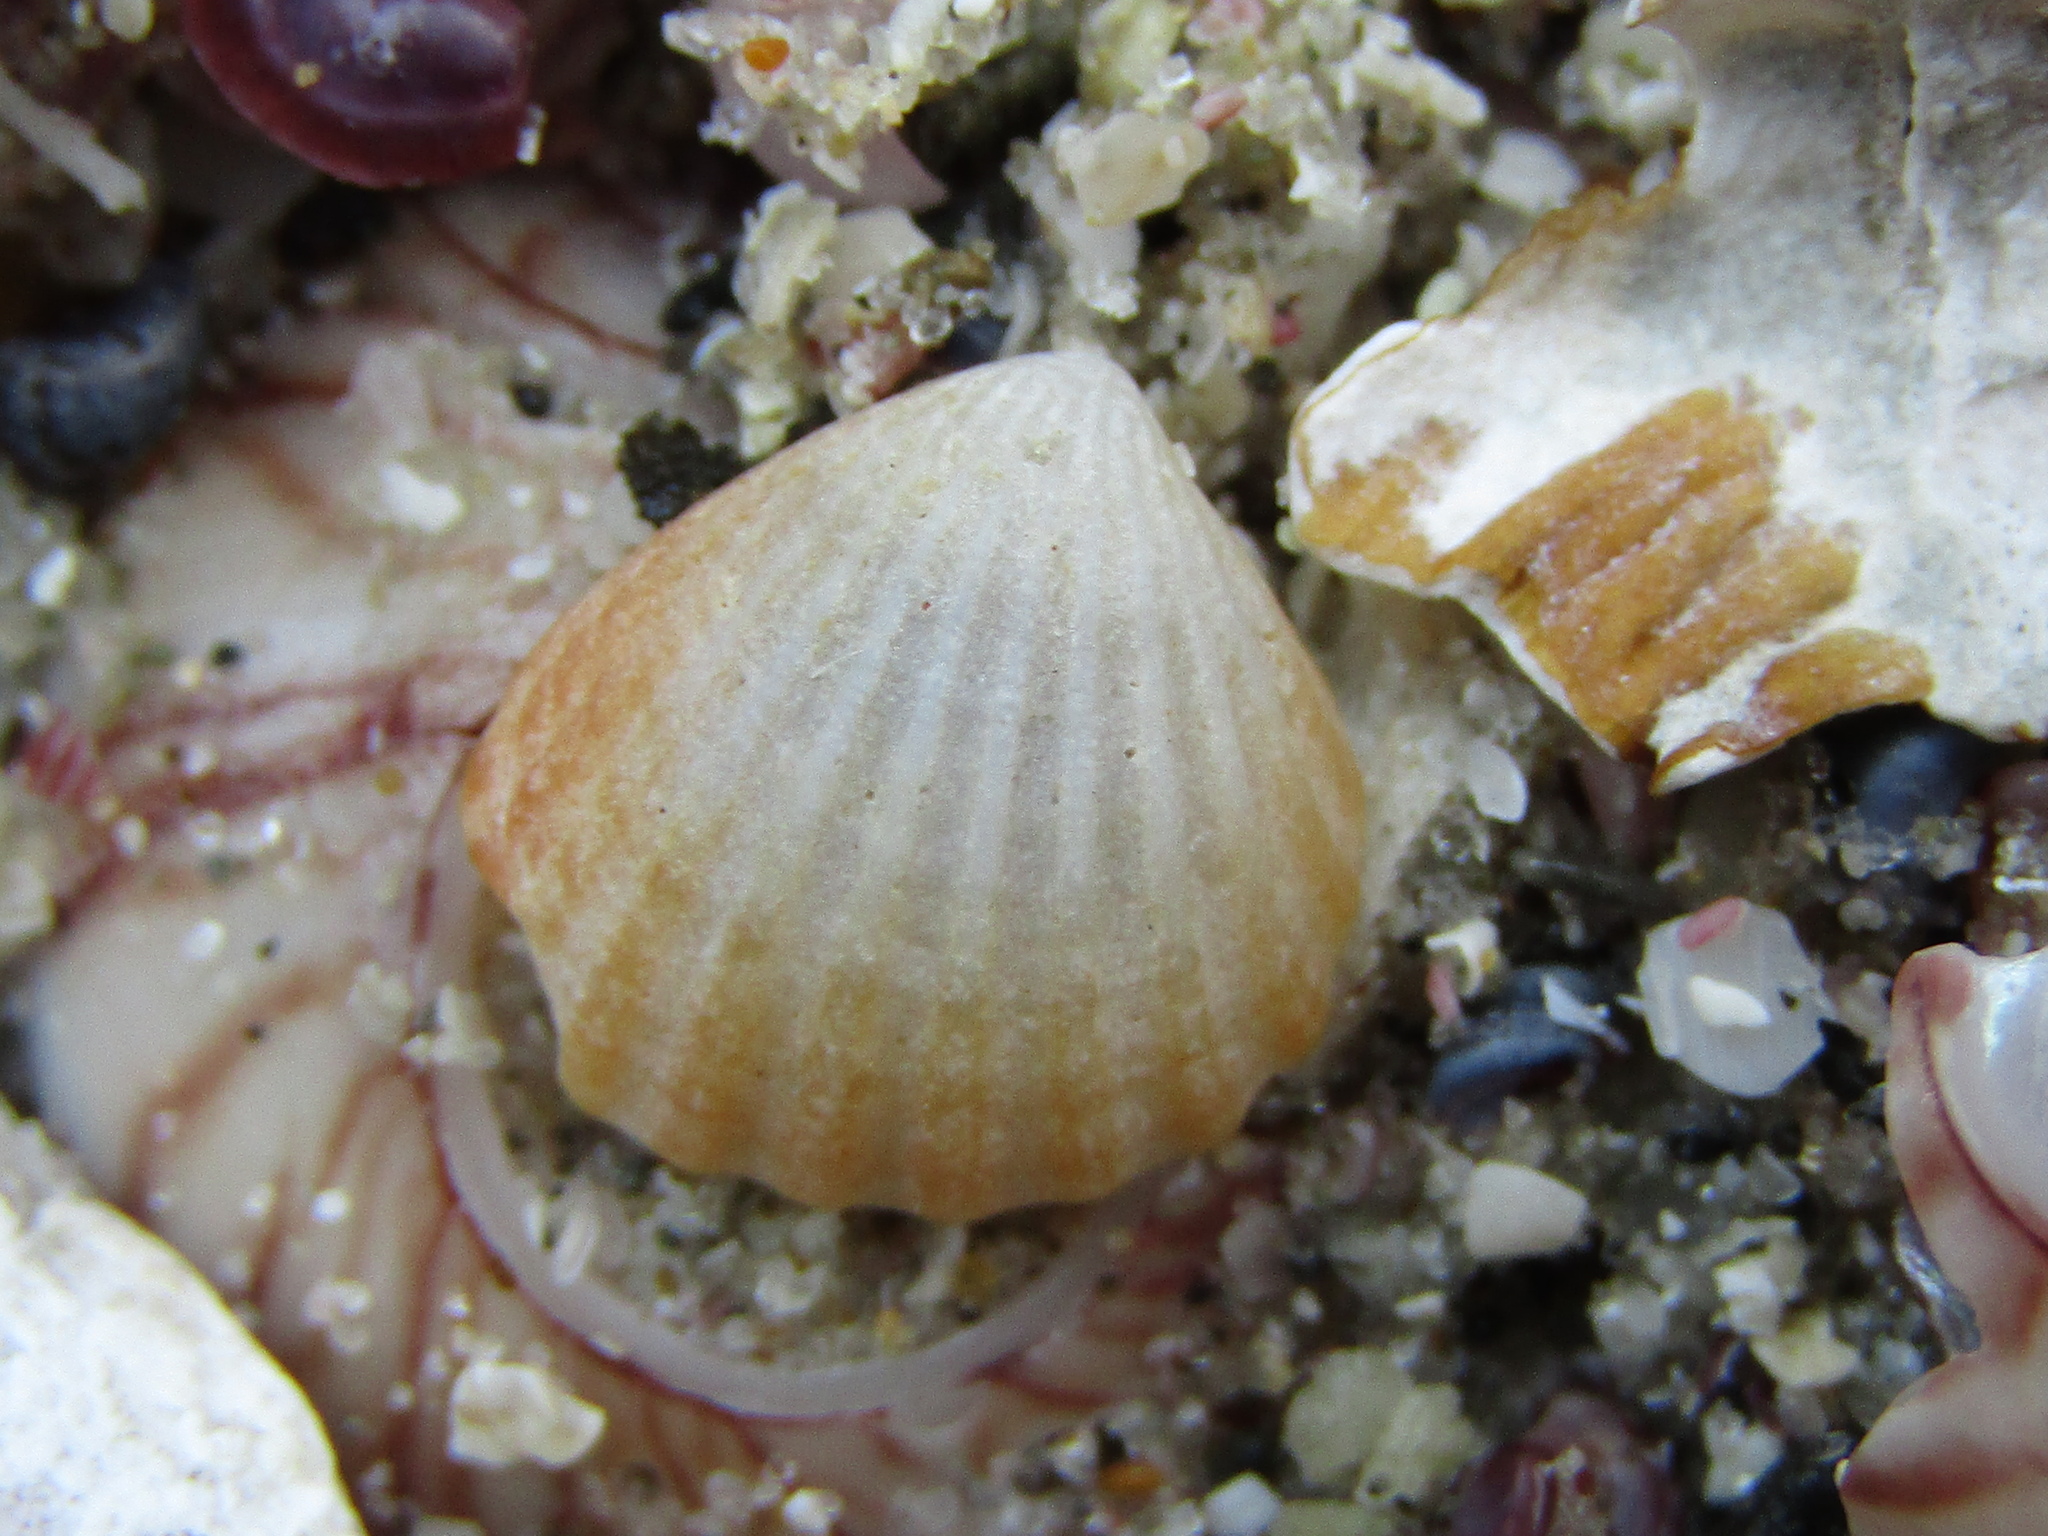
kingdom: Animalia
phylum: Mollusca
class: Bivalvia
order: Carditida
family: Carditidae
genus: Pleuromeris
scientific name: Pleuromeris zelandica
